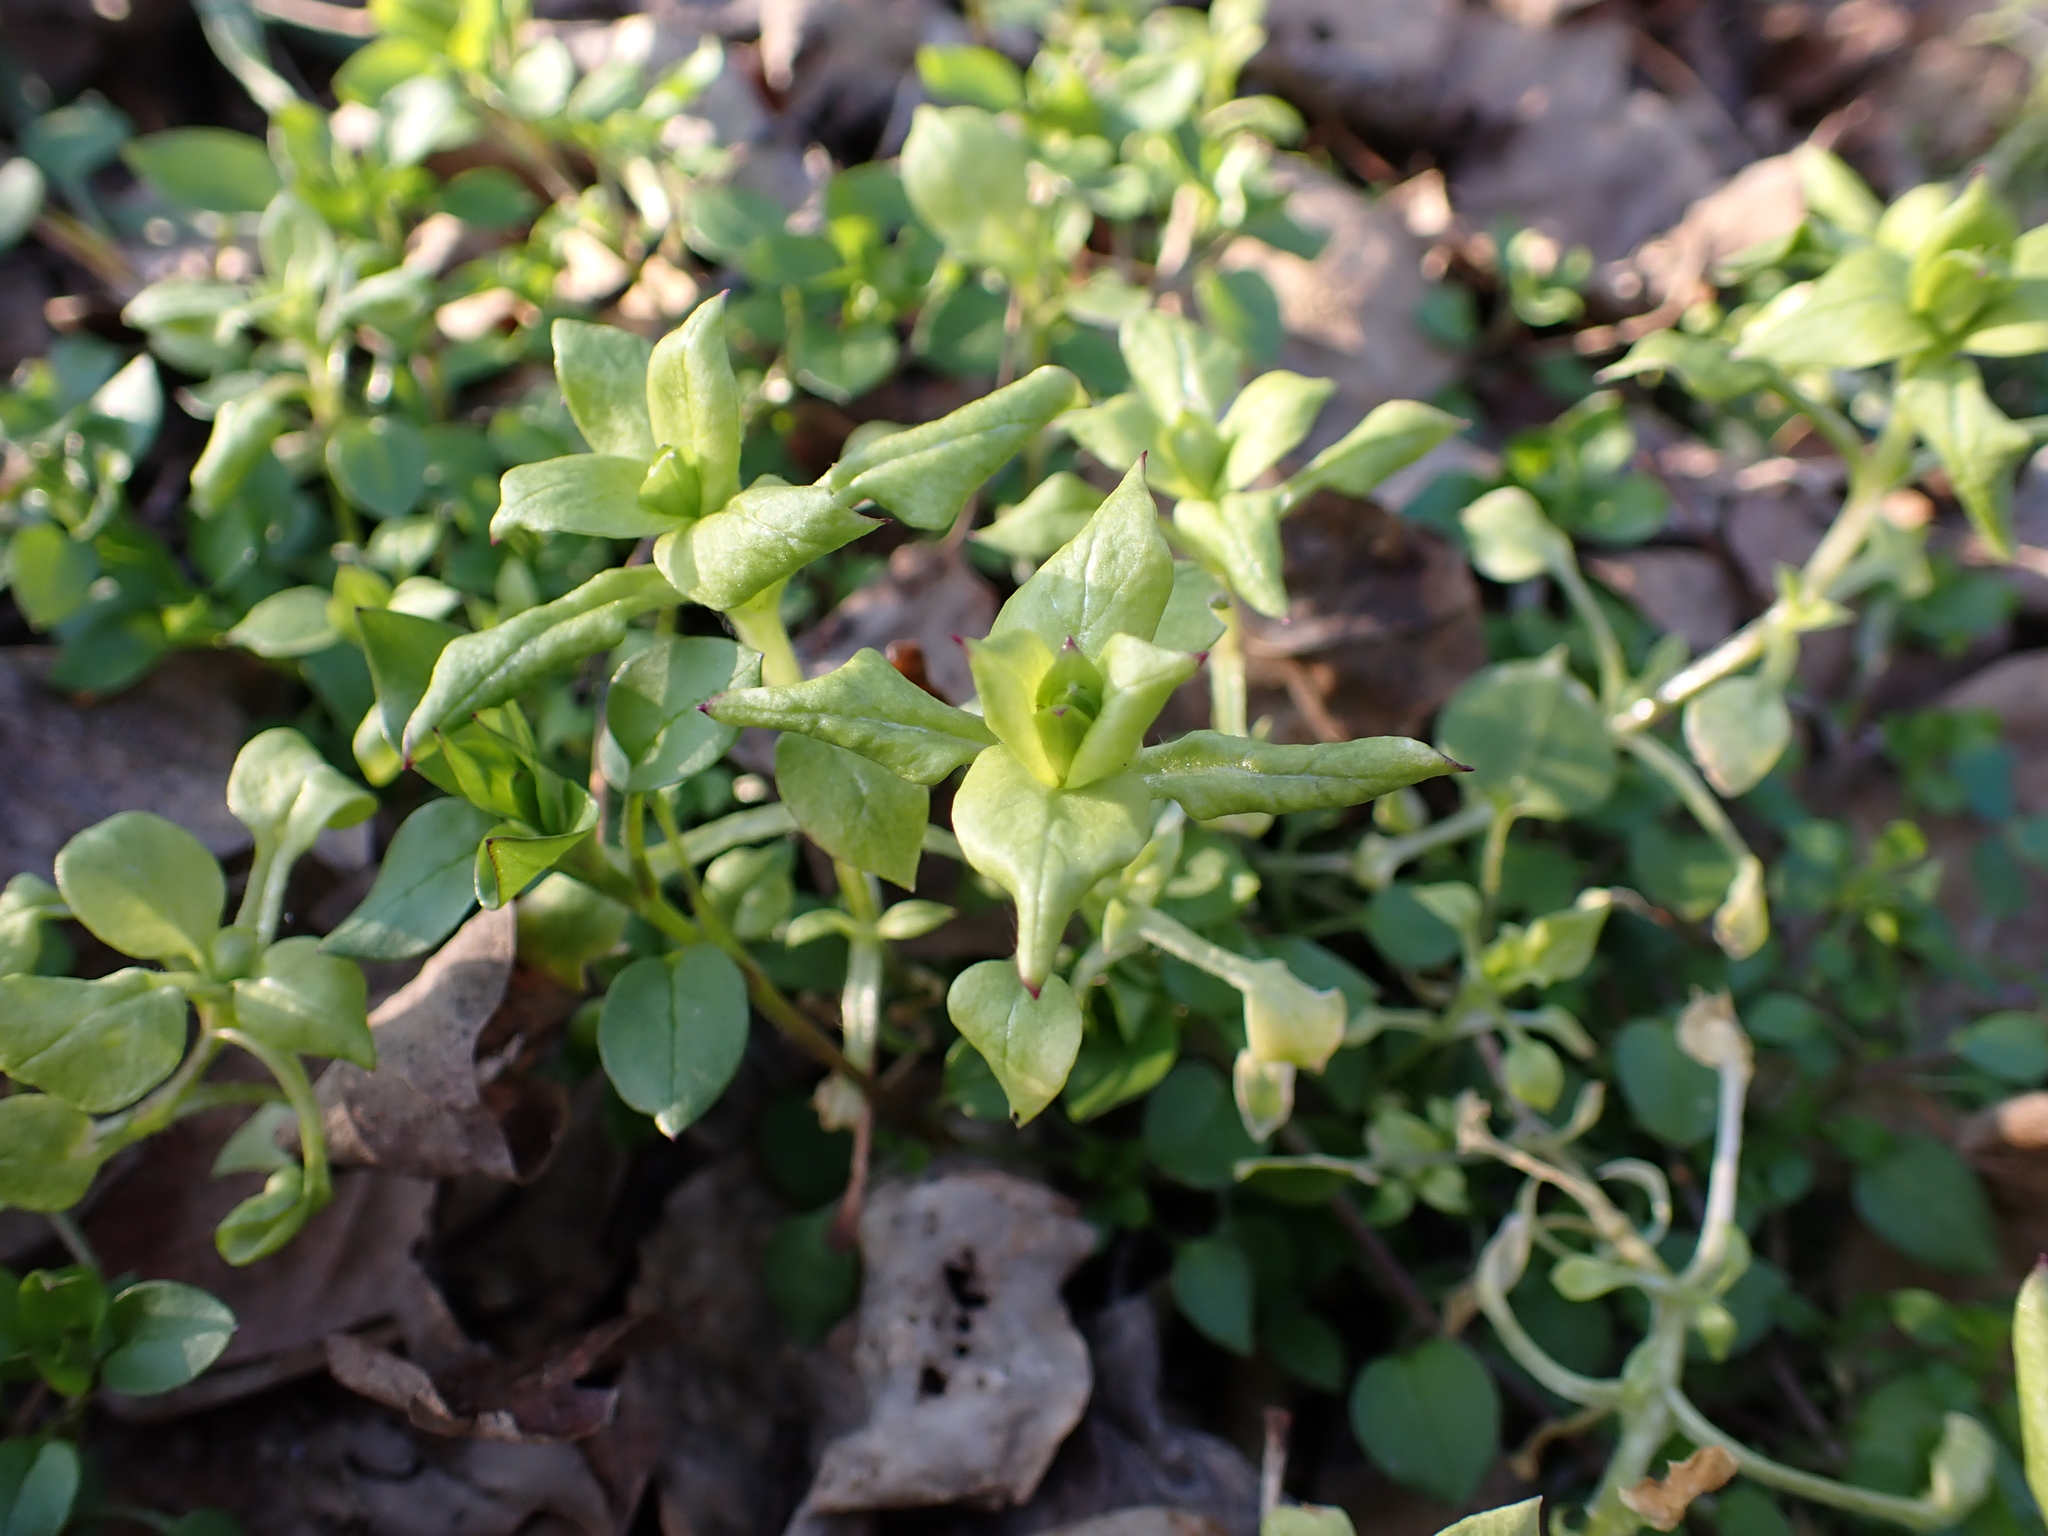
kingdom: Chromista
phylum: Oomycota
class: Peronosporea
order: Peronosporales
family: Peronosporaceae
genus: Peronospora
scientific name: Peronospora alsinearum
